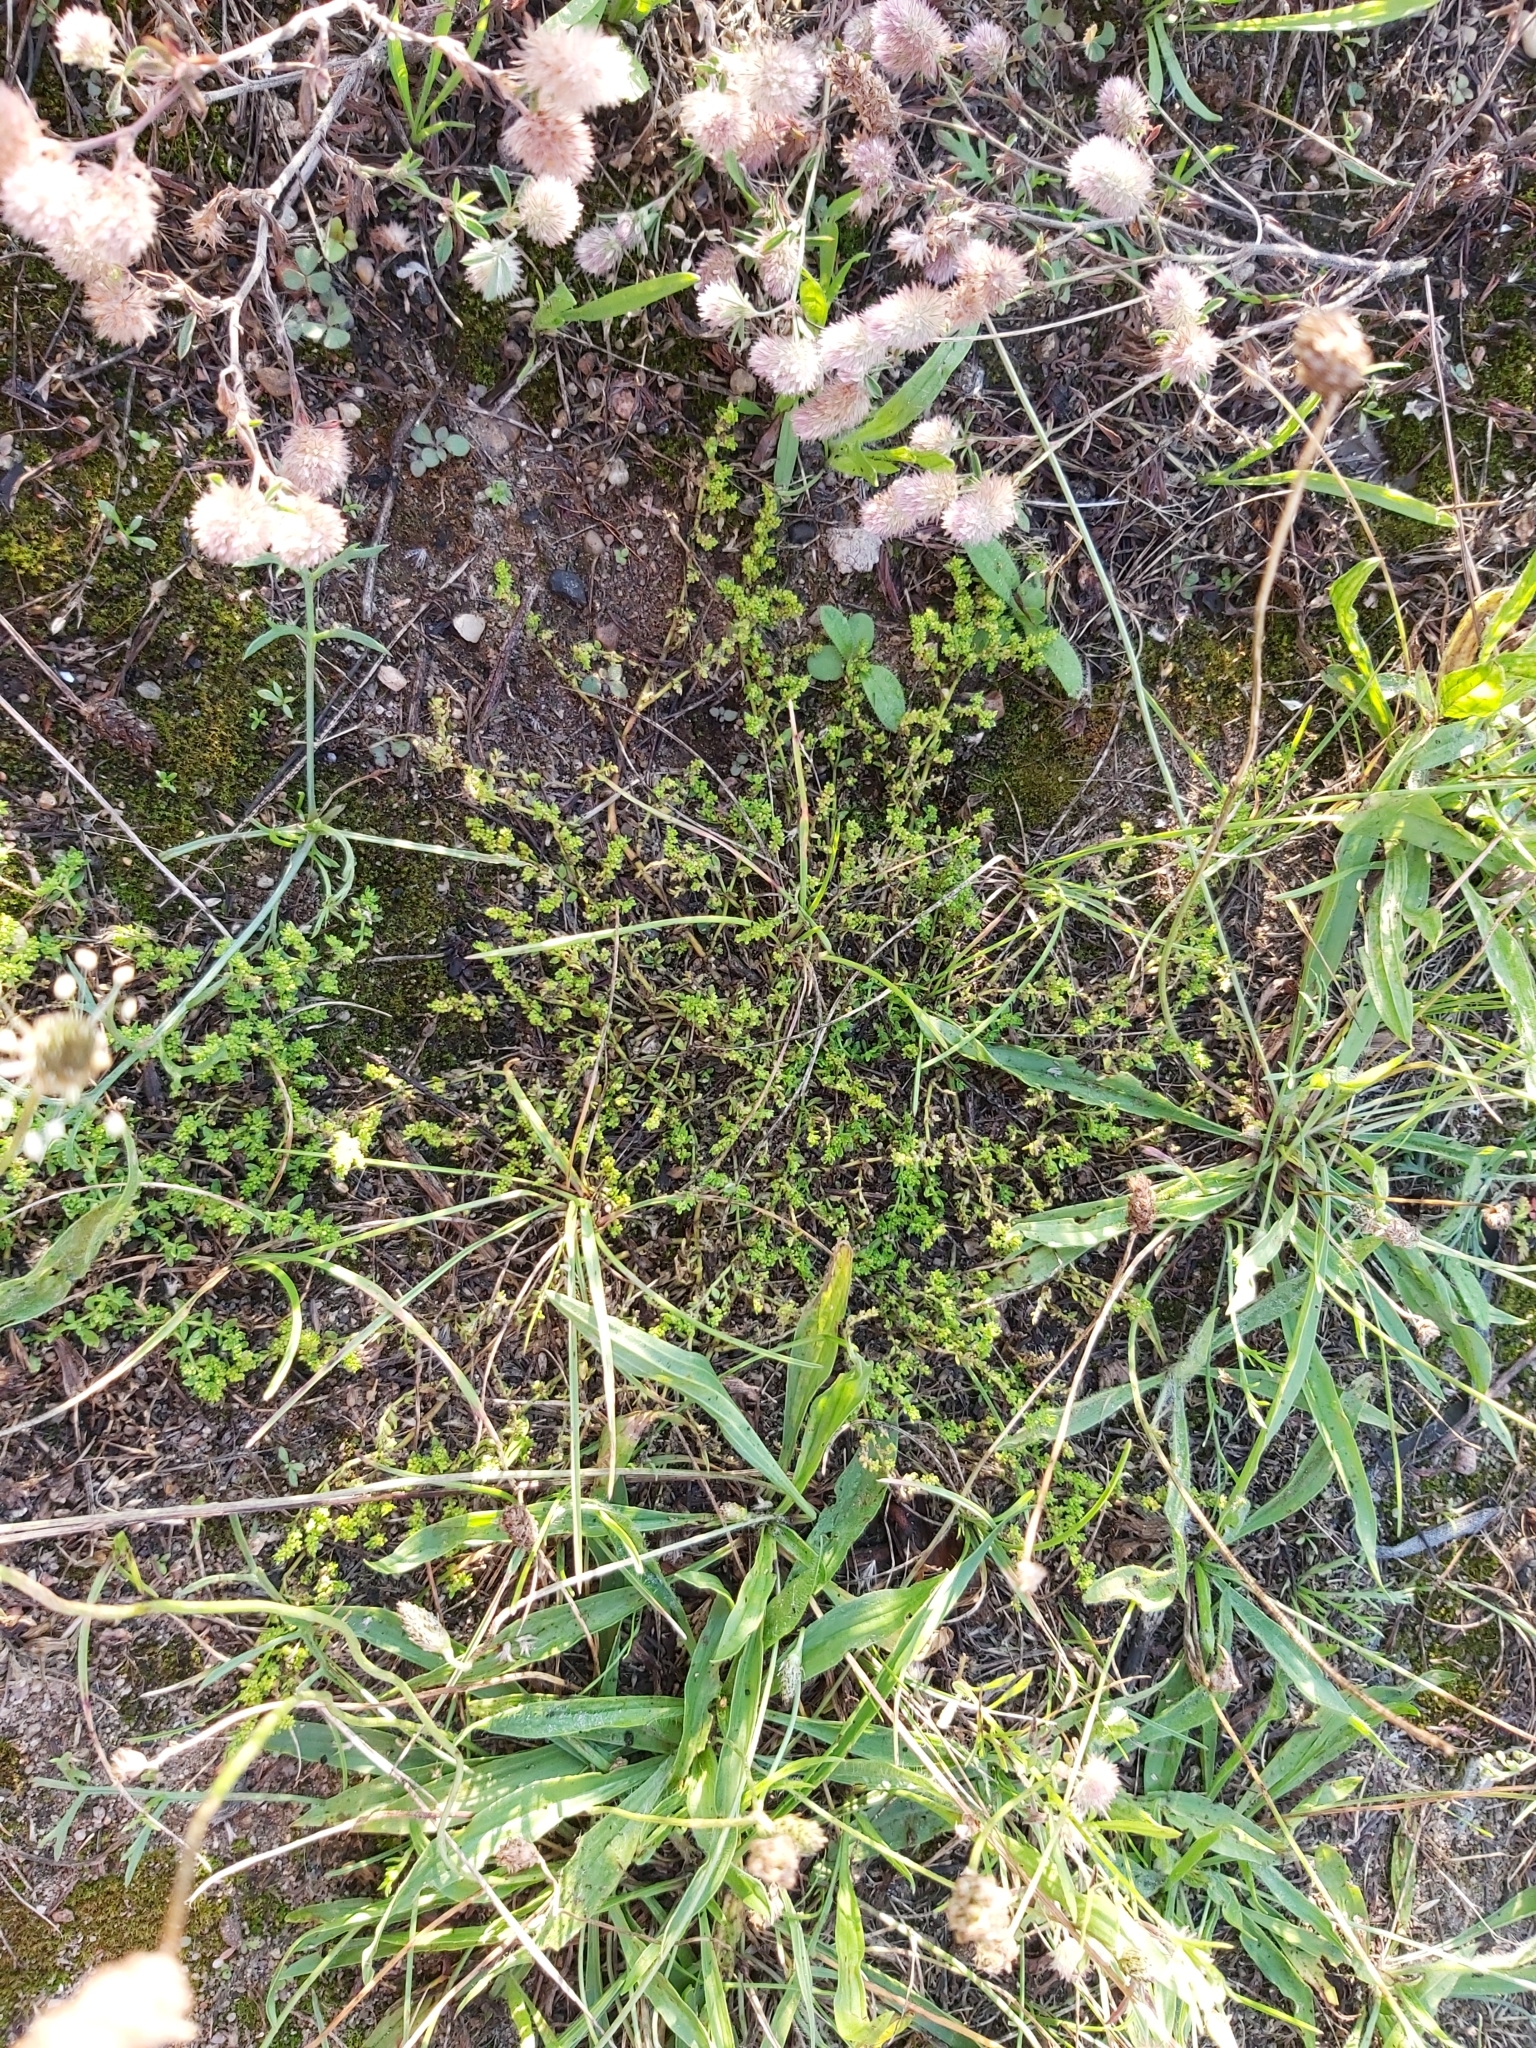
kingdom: Plantae
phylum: Tracheophyta
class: Magnoliopsida
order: Caryophyllales
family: Caryophyllaceae
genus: Herniaria
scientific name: Herniaria glabra
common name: Smooth rupturewort
